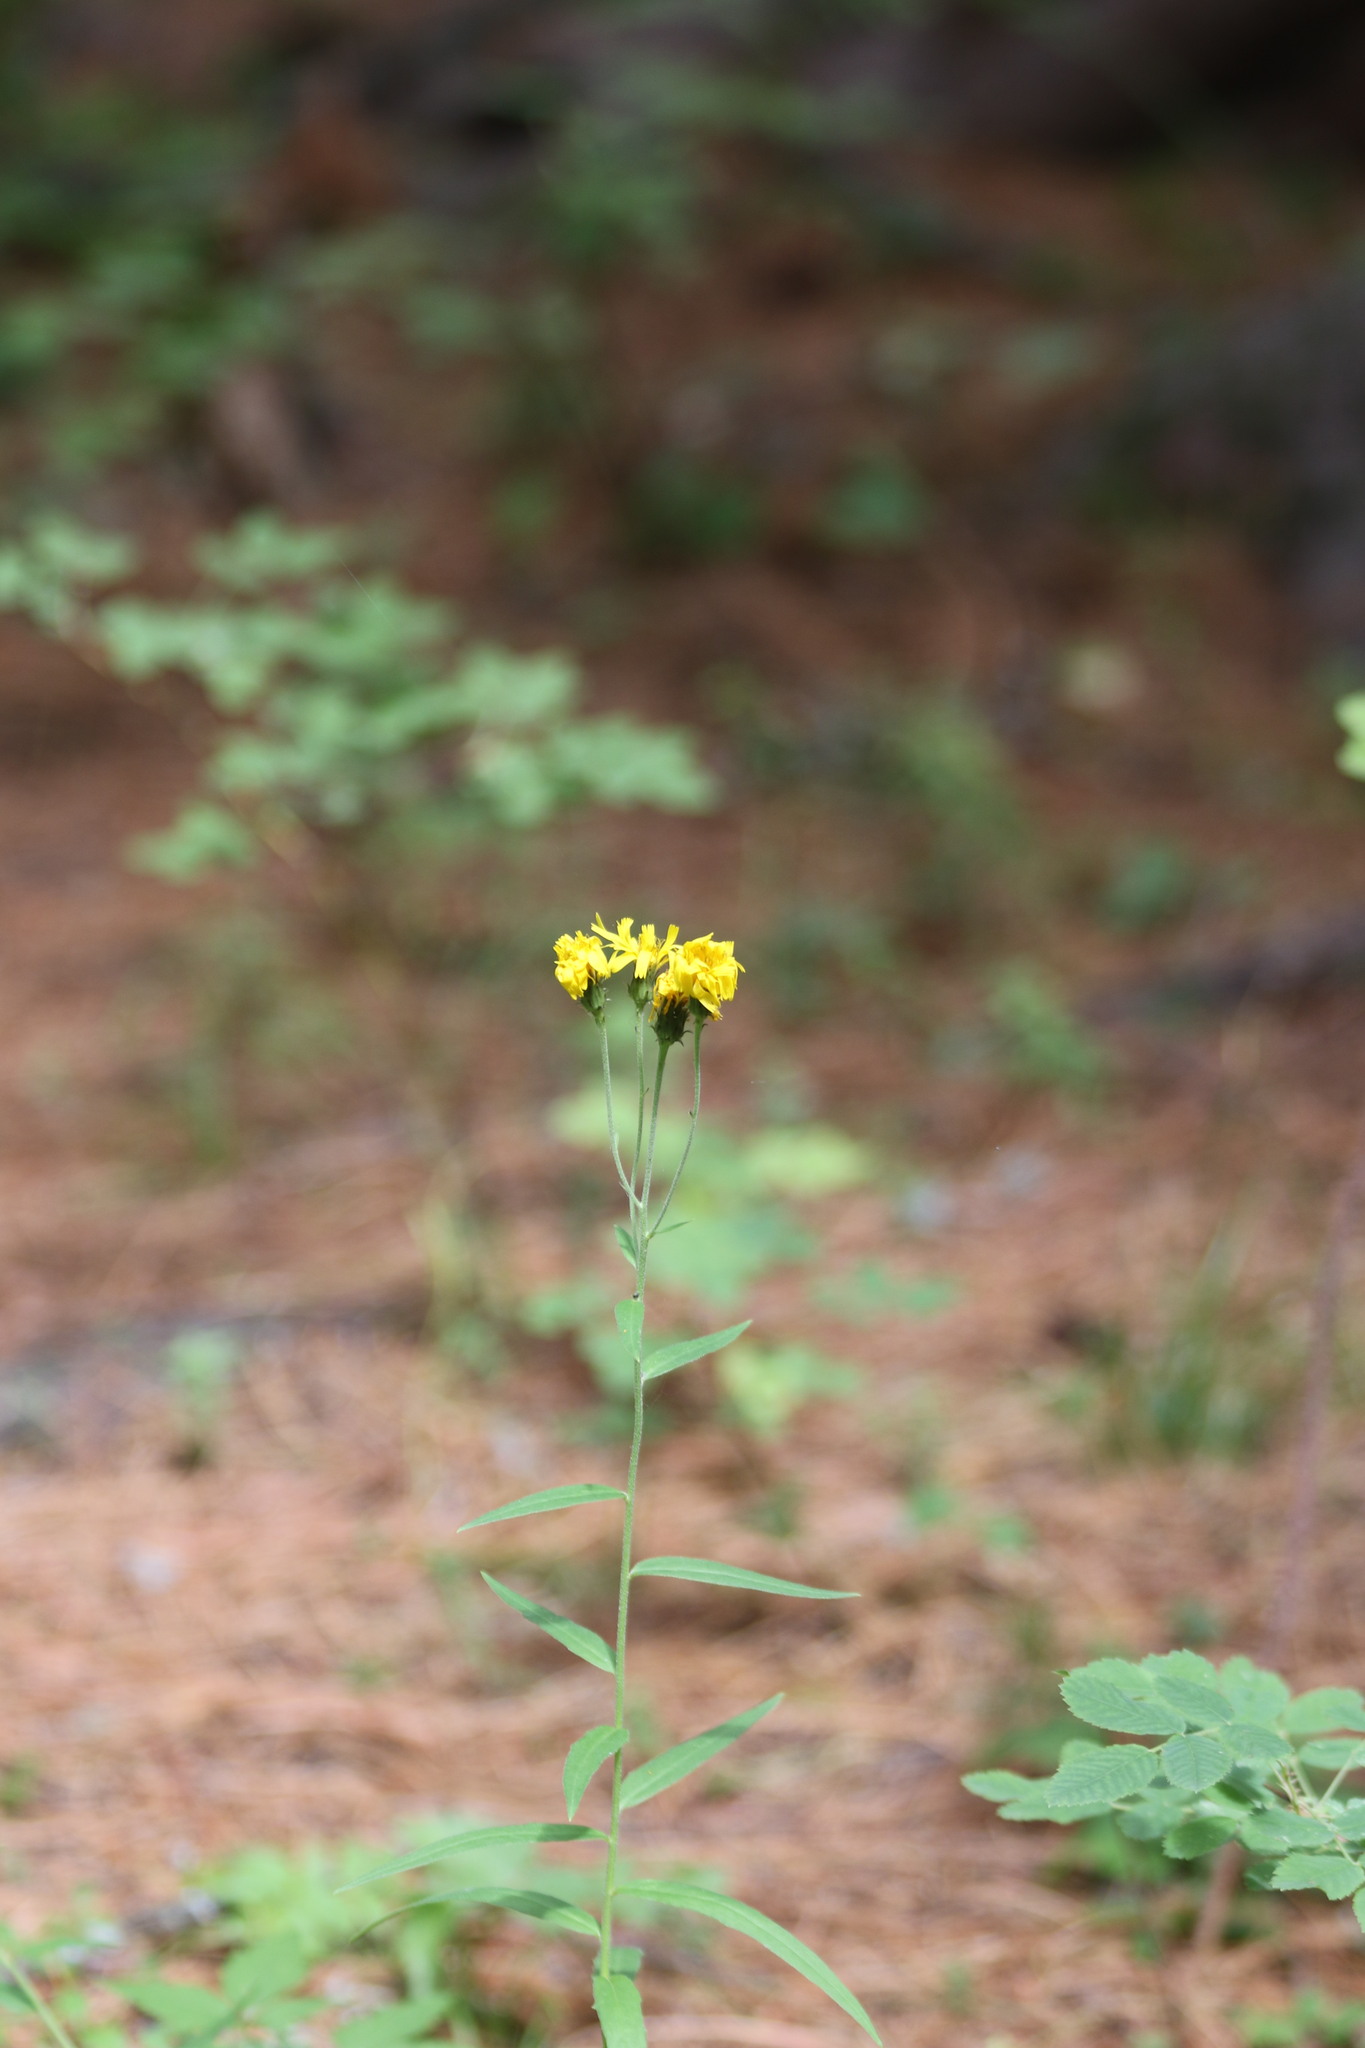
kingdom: Plantae
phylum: Tracheophyta
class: Magnoliopsida
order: Asterales
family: Asteraceae
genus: Hieracium
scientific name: Hieracium umbellatum
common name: Northern hawkweed
